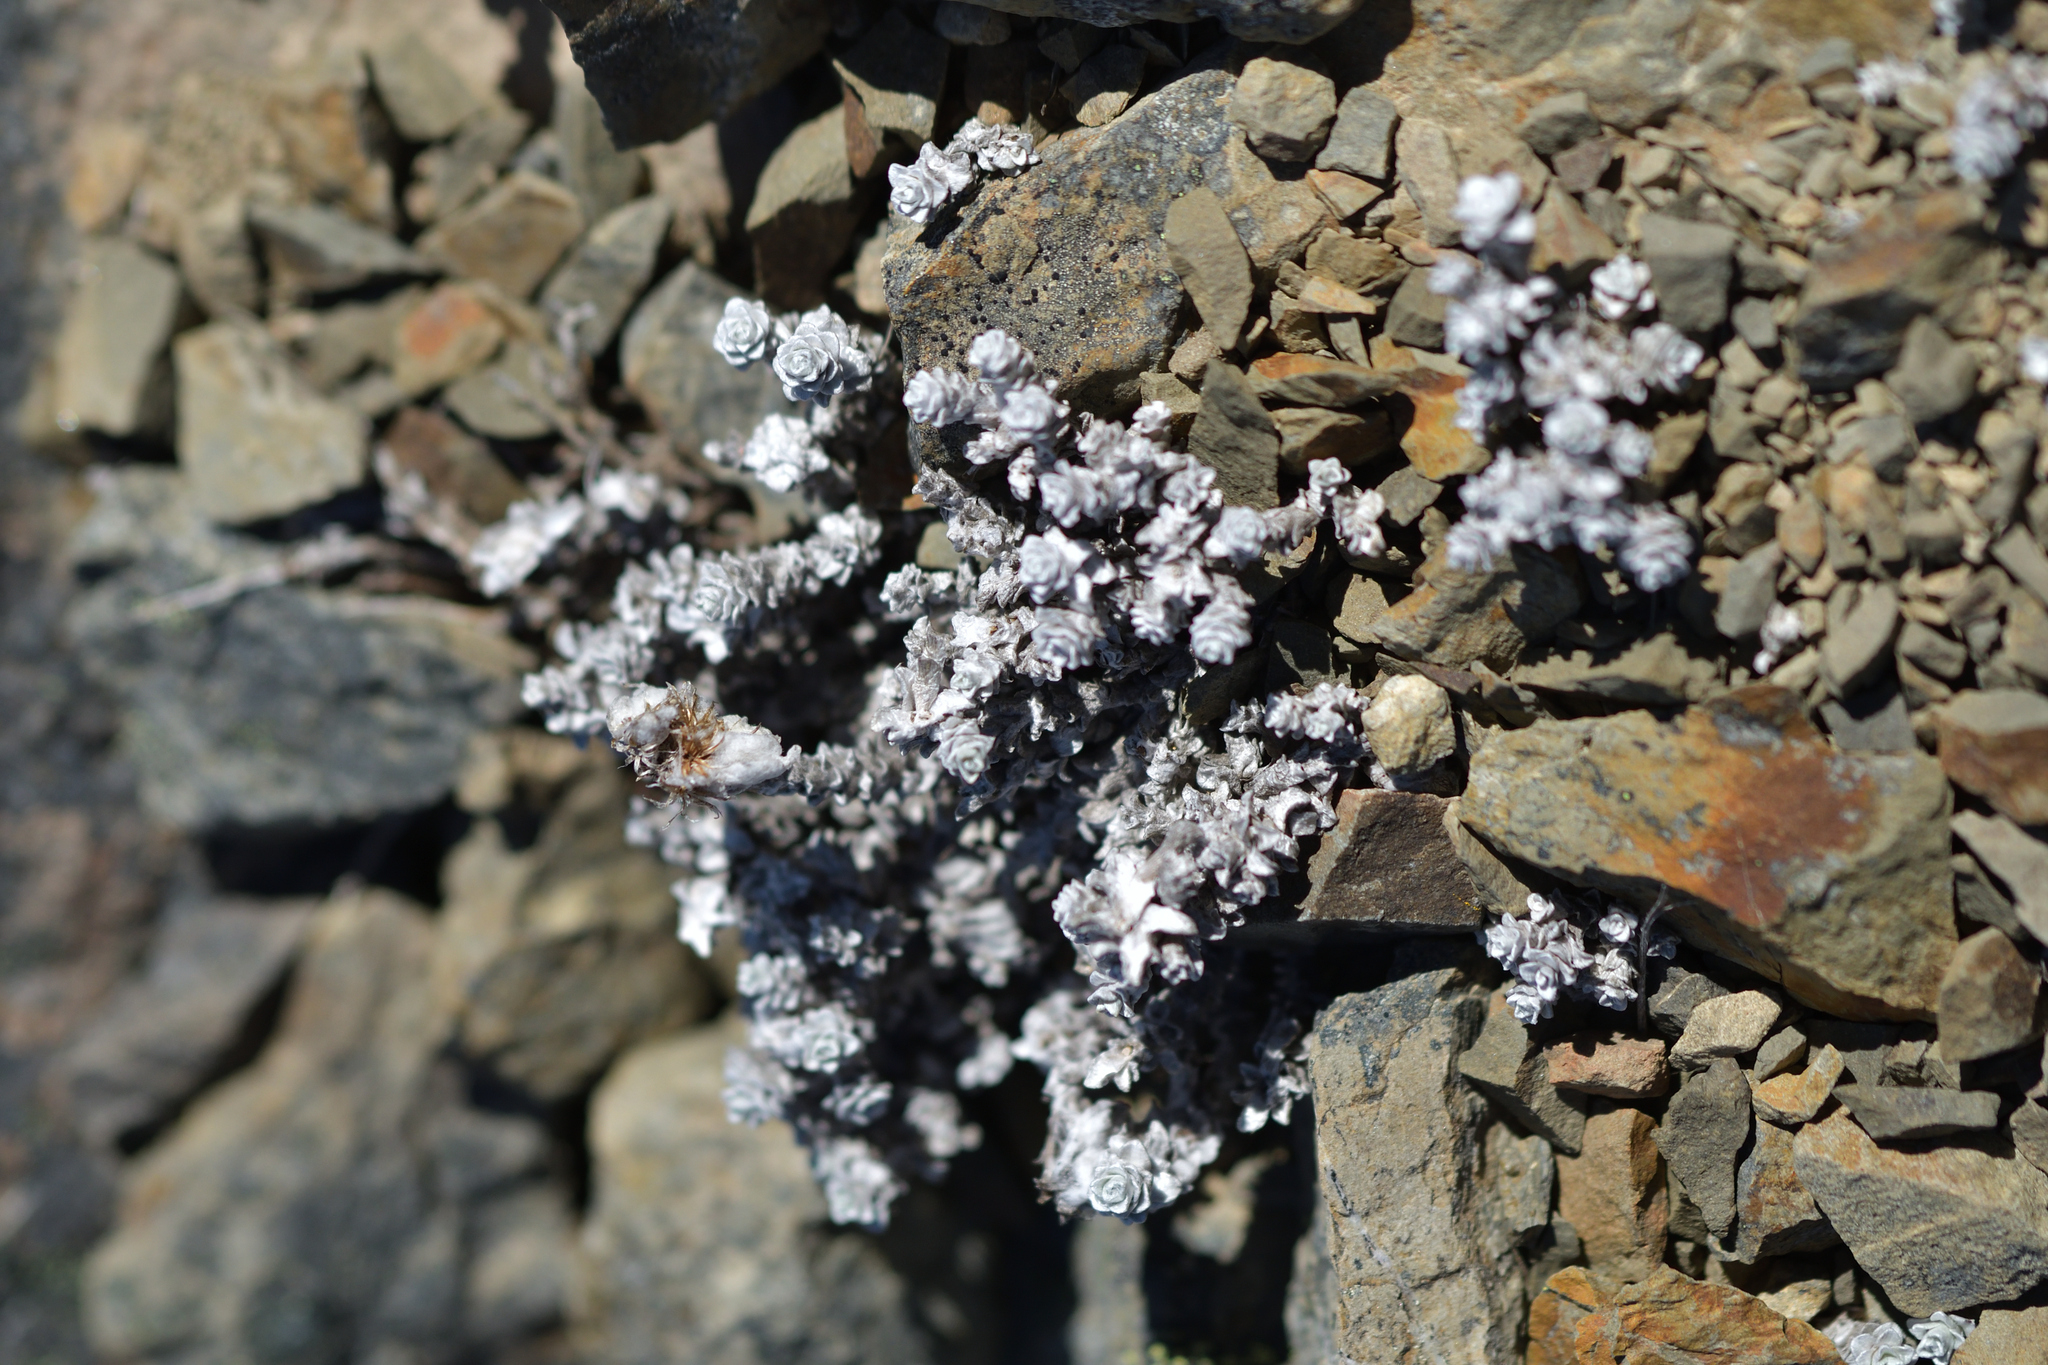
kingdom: Plantae
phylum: Tracheophyta
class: Magnoliopsida
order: Asterales
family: Asteraceae
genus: Leucogenes
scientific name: Leucogenes grandiceps
